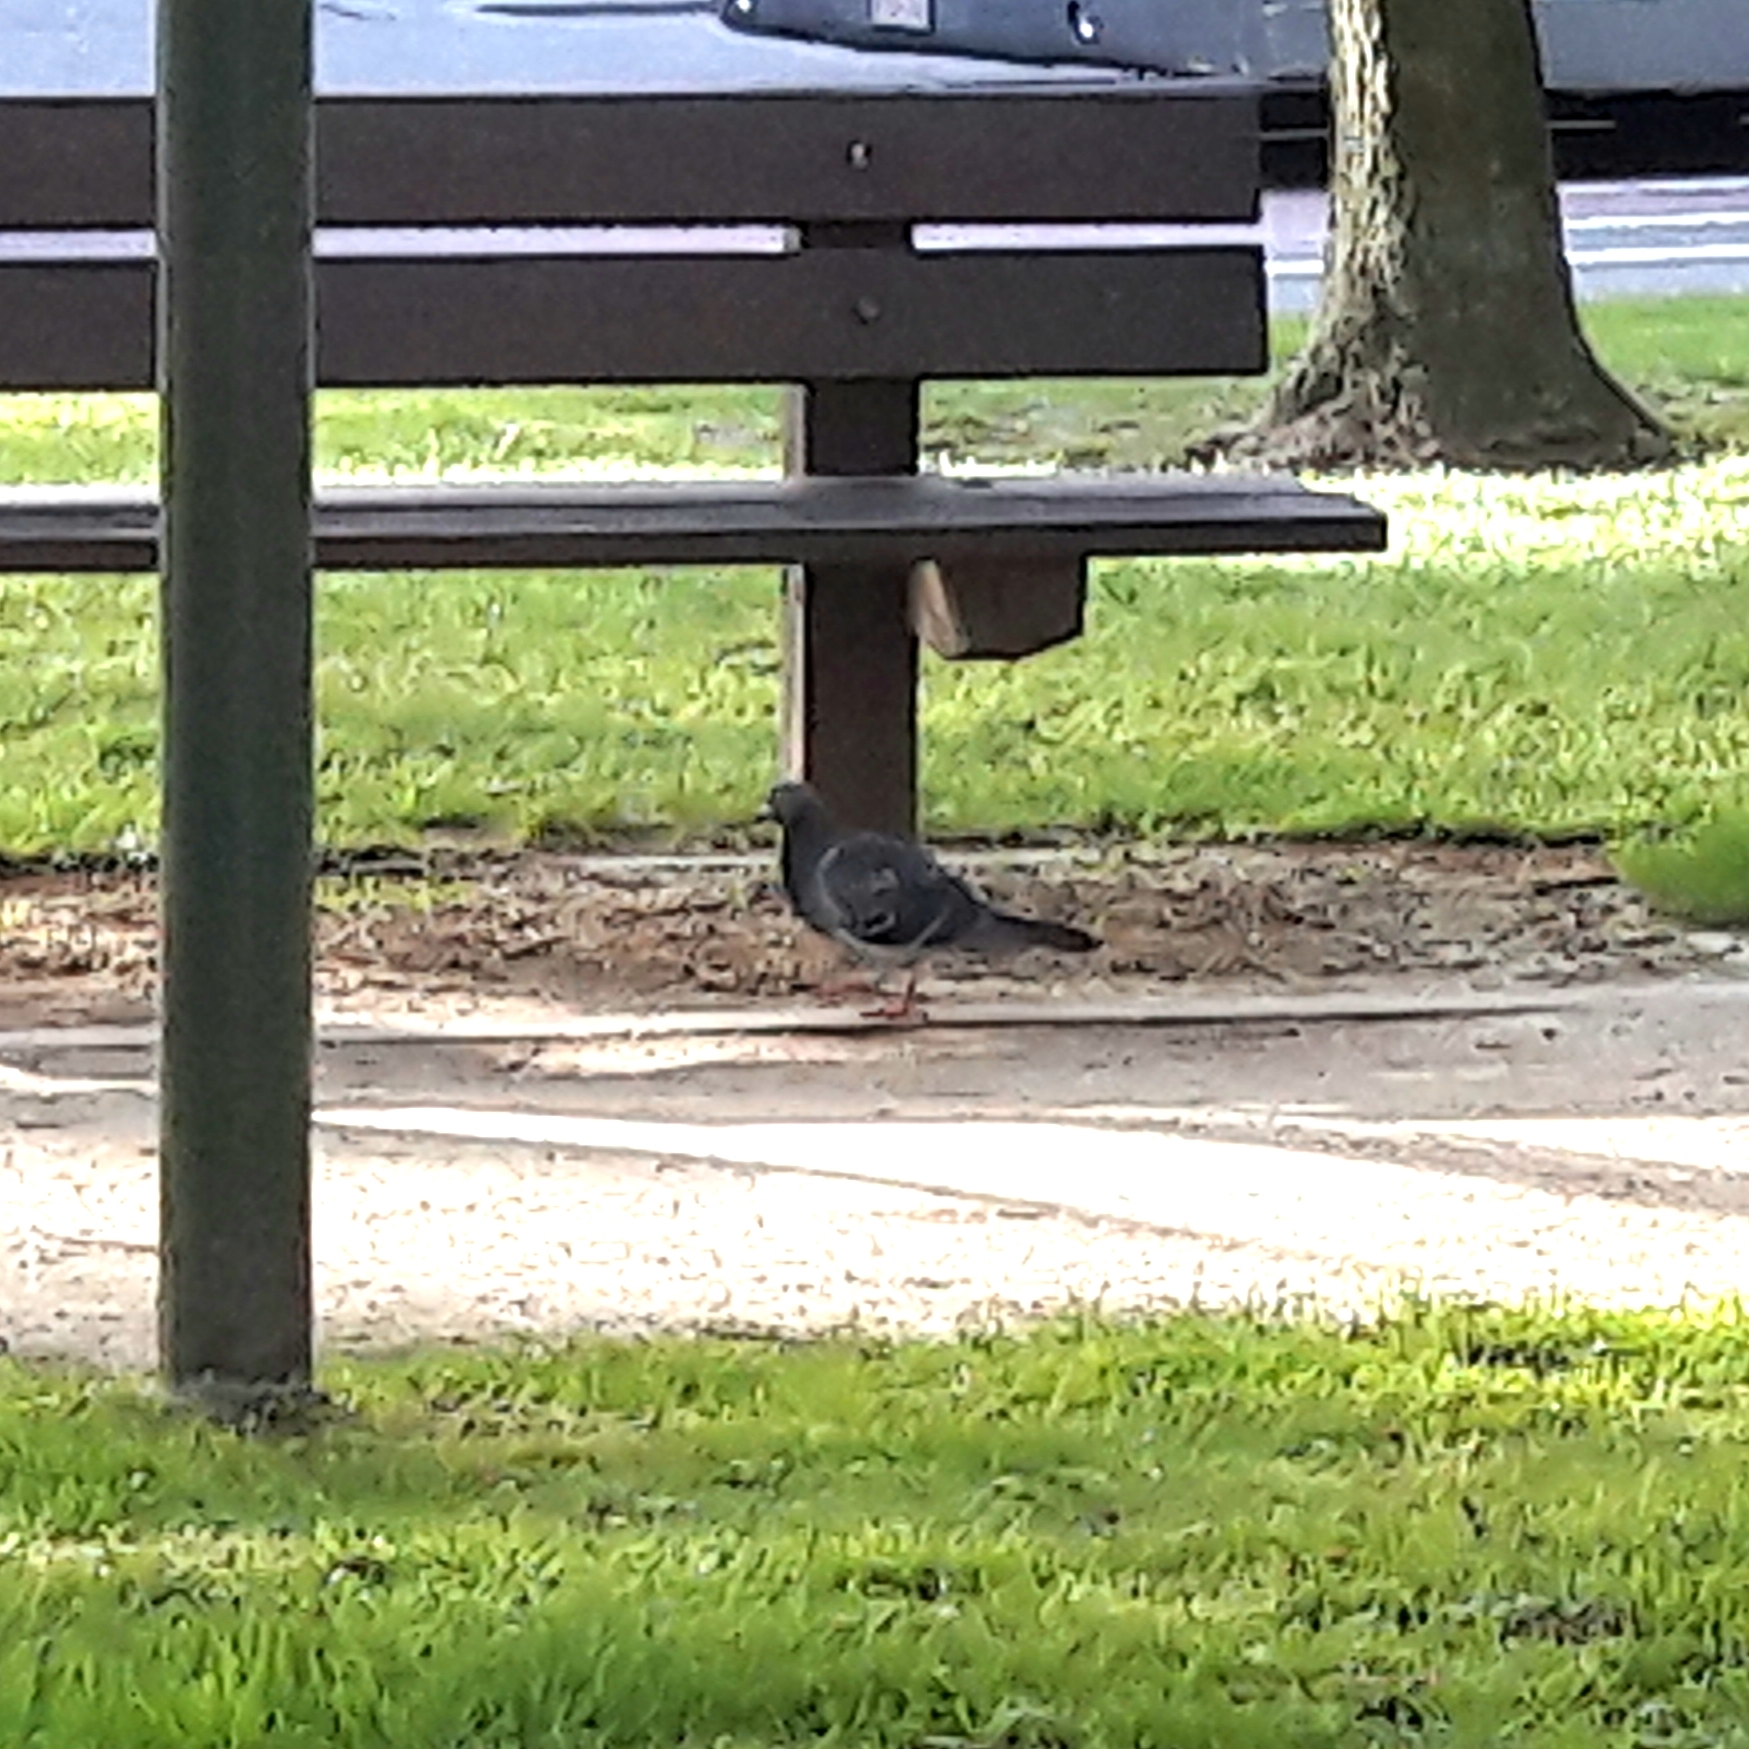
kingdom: Animalia
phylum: Chordata
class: Aves
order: Columbiformes
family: Columbidae
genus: Columba
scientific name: Columba livia
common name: Rock pigeon
